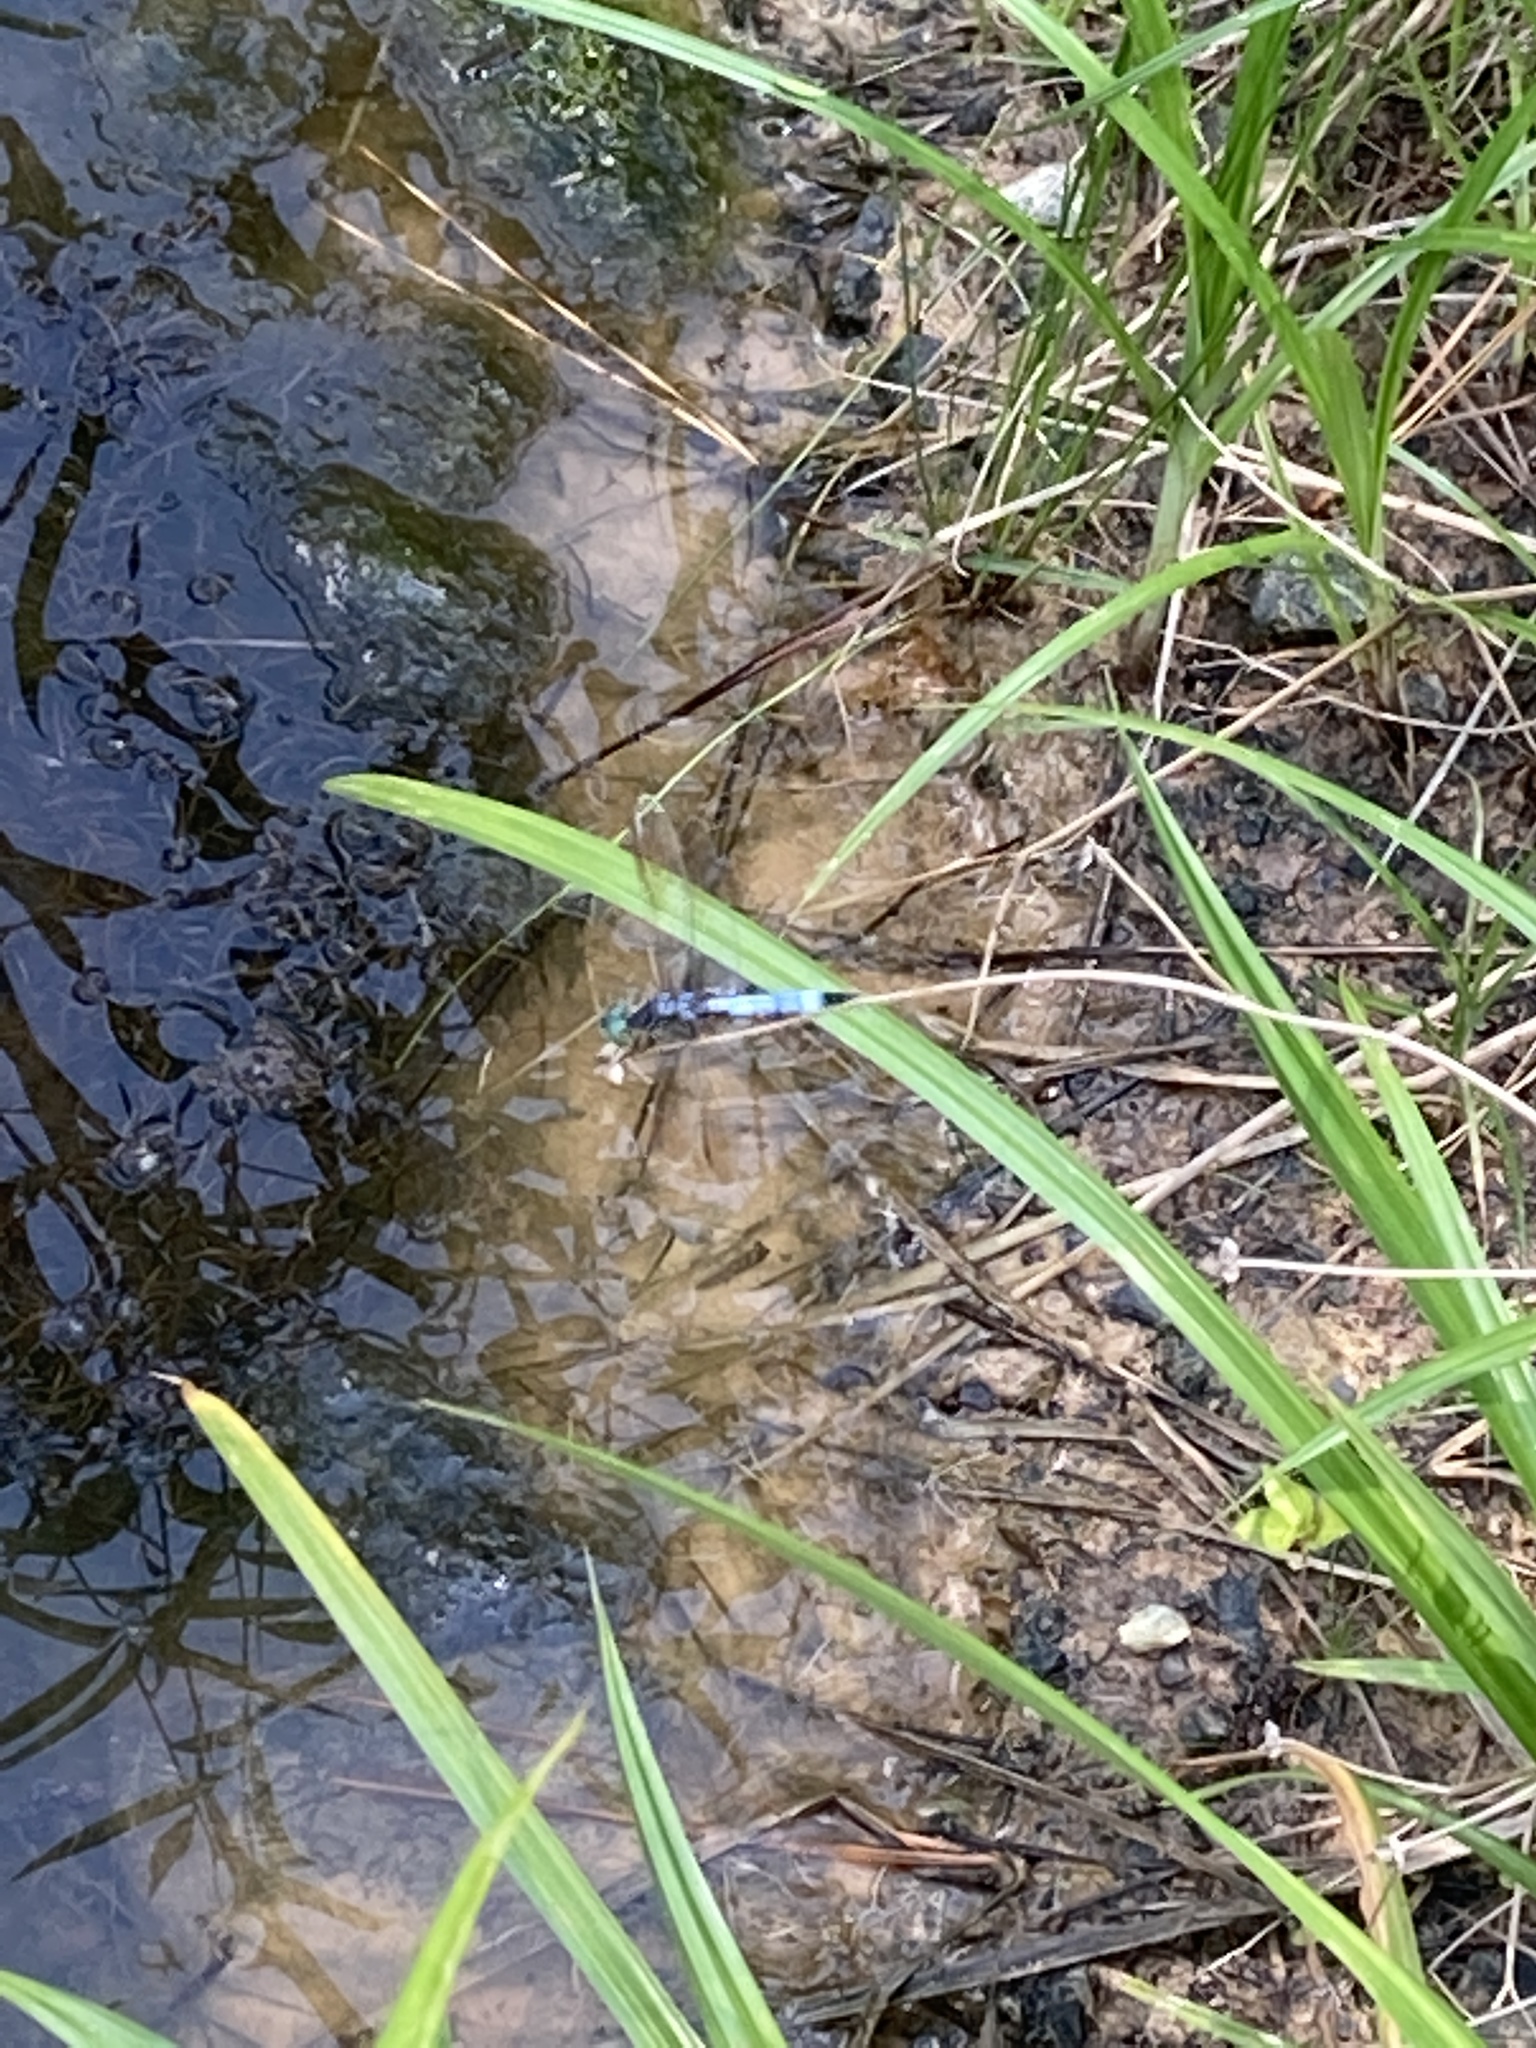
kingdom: Animalia
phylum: Arthropoda
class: Insecta
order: Odonata
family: Libellulidae
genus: Pachydiplax
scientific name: Pachydiplax longipennis
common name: Blue dasher
